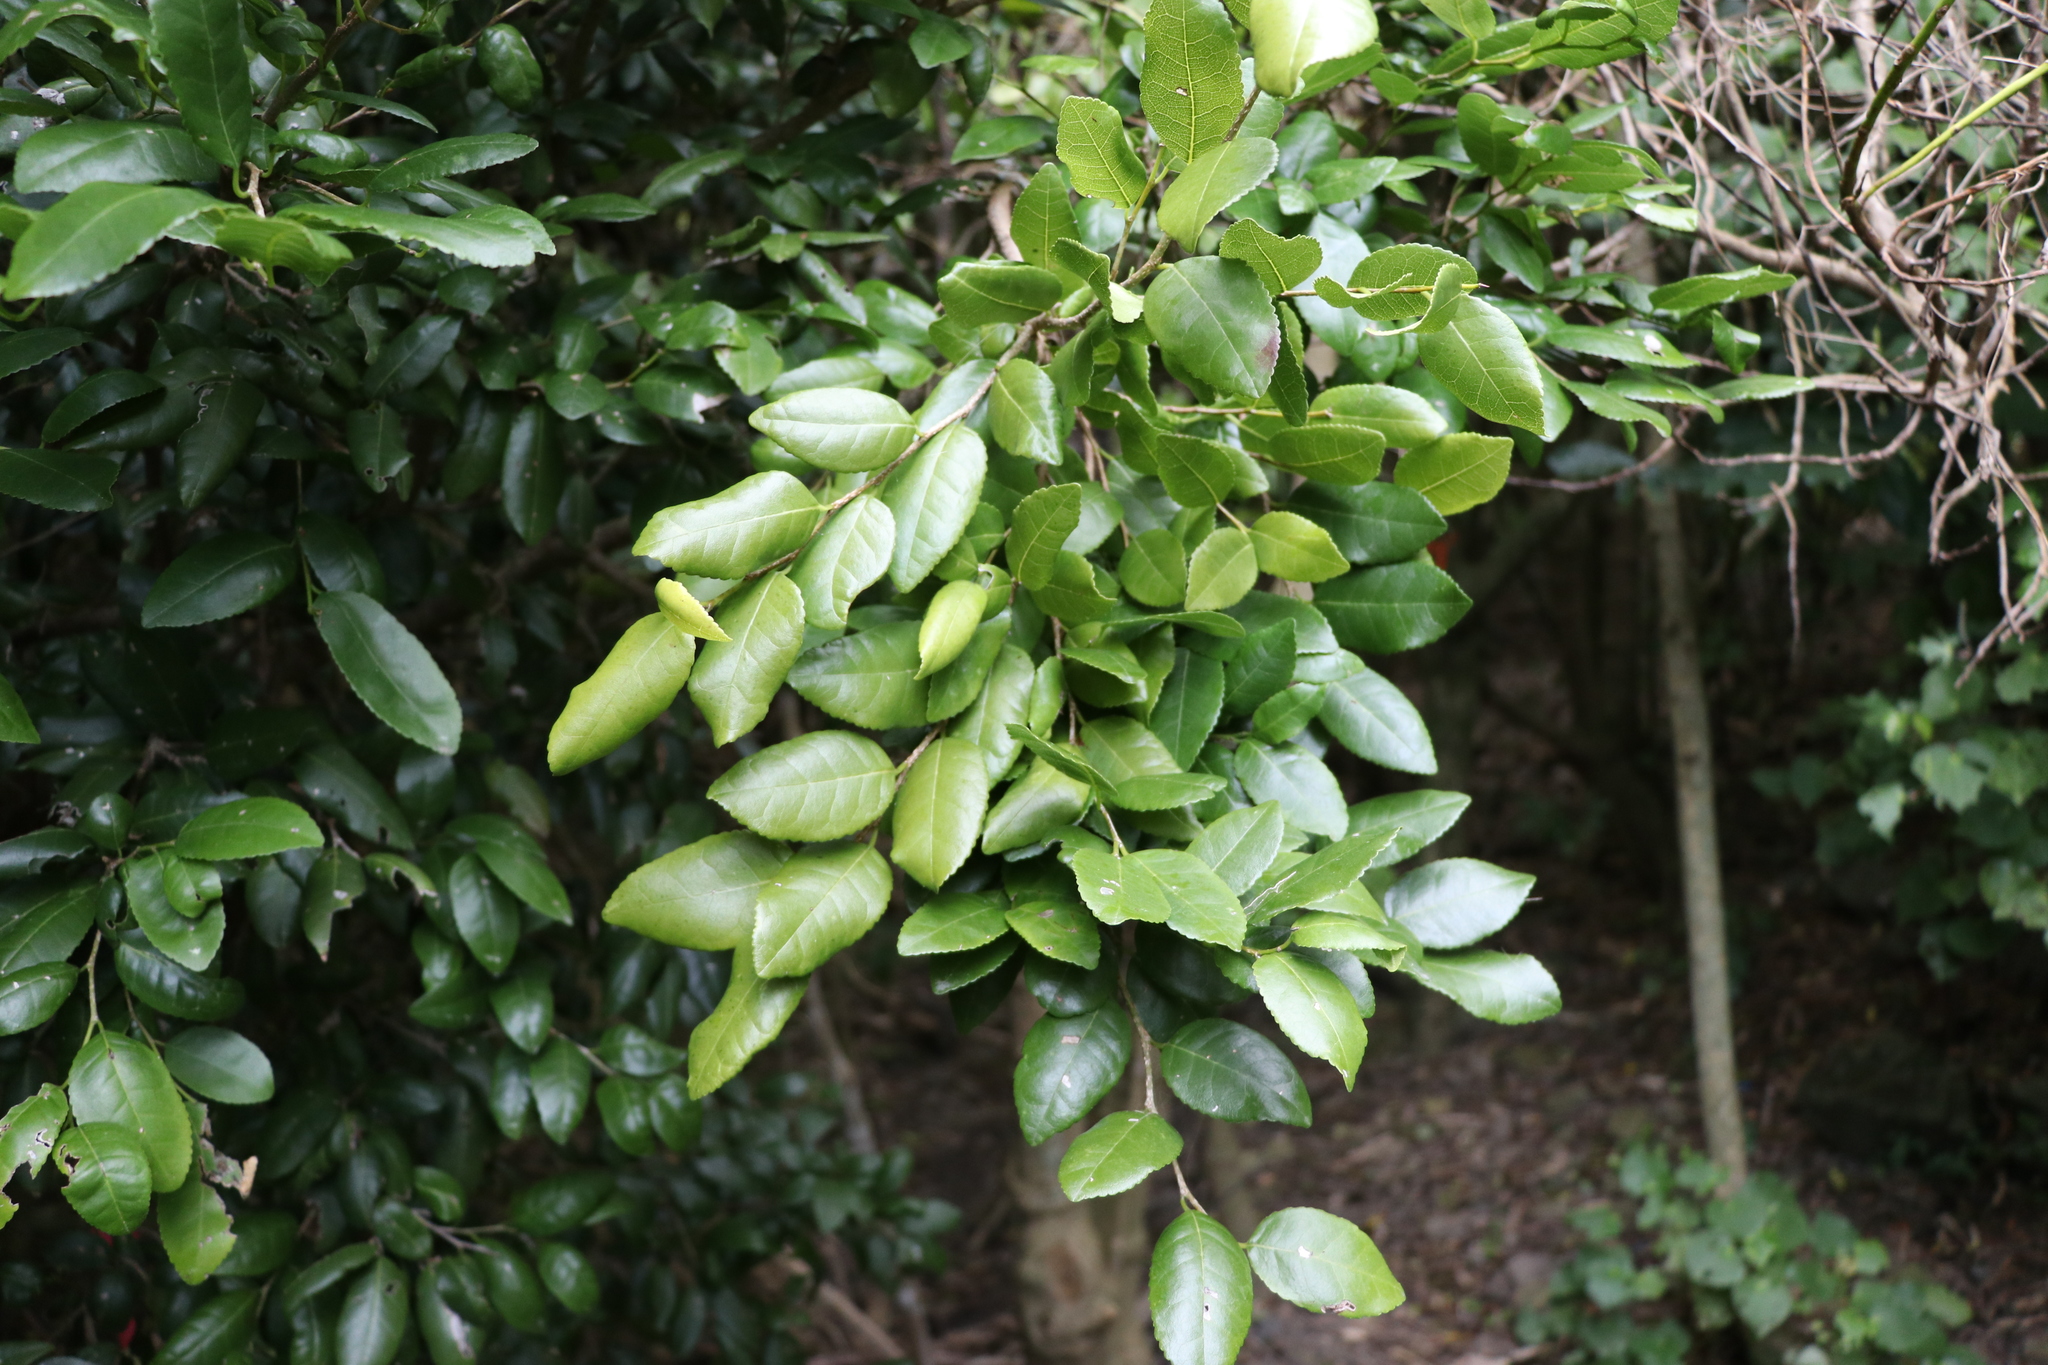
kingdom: Plantae
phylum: Tracheophyta
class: Magnoliopsida
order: Rosales
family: Moraceae
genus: Paratrophis
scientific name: Paratrophis banksii
